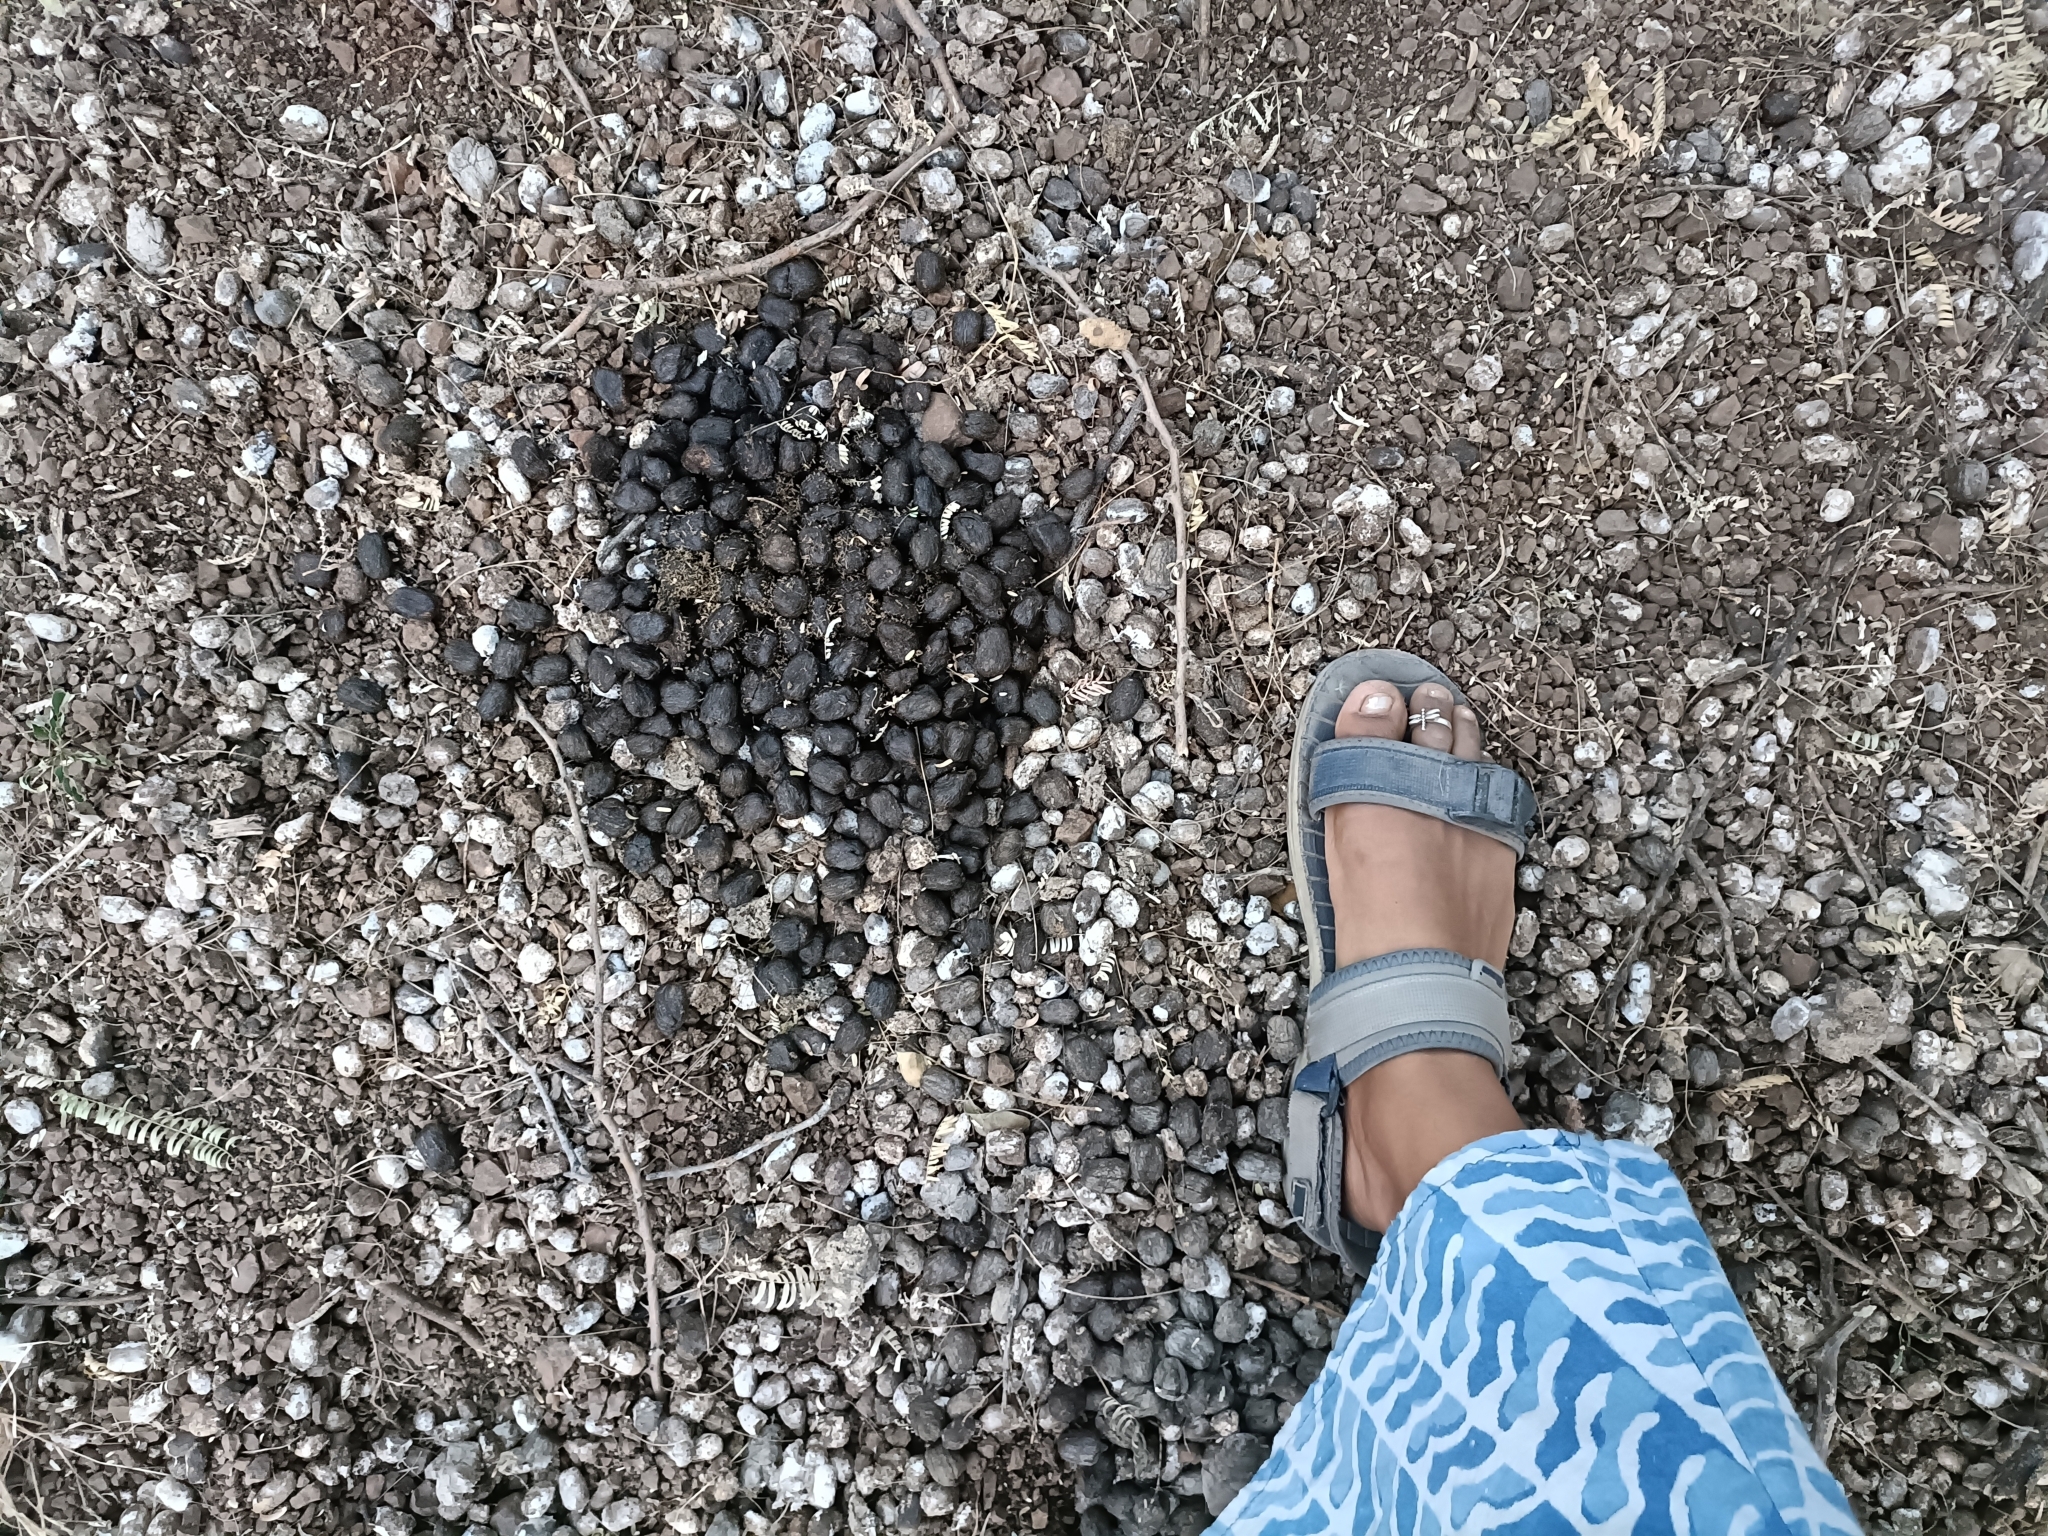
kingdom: Animalia
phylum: Chordata
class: Mammalia
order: Artiodactyla
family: Bovidae
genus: Boselaphus
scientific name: Boselaphus tragocamelus
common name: Nilgai
